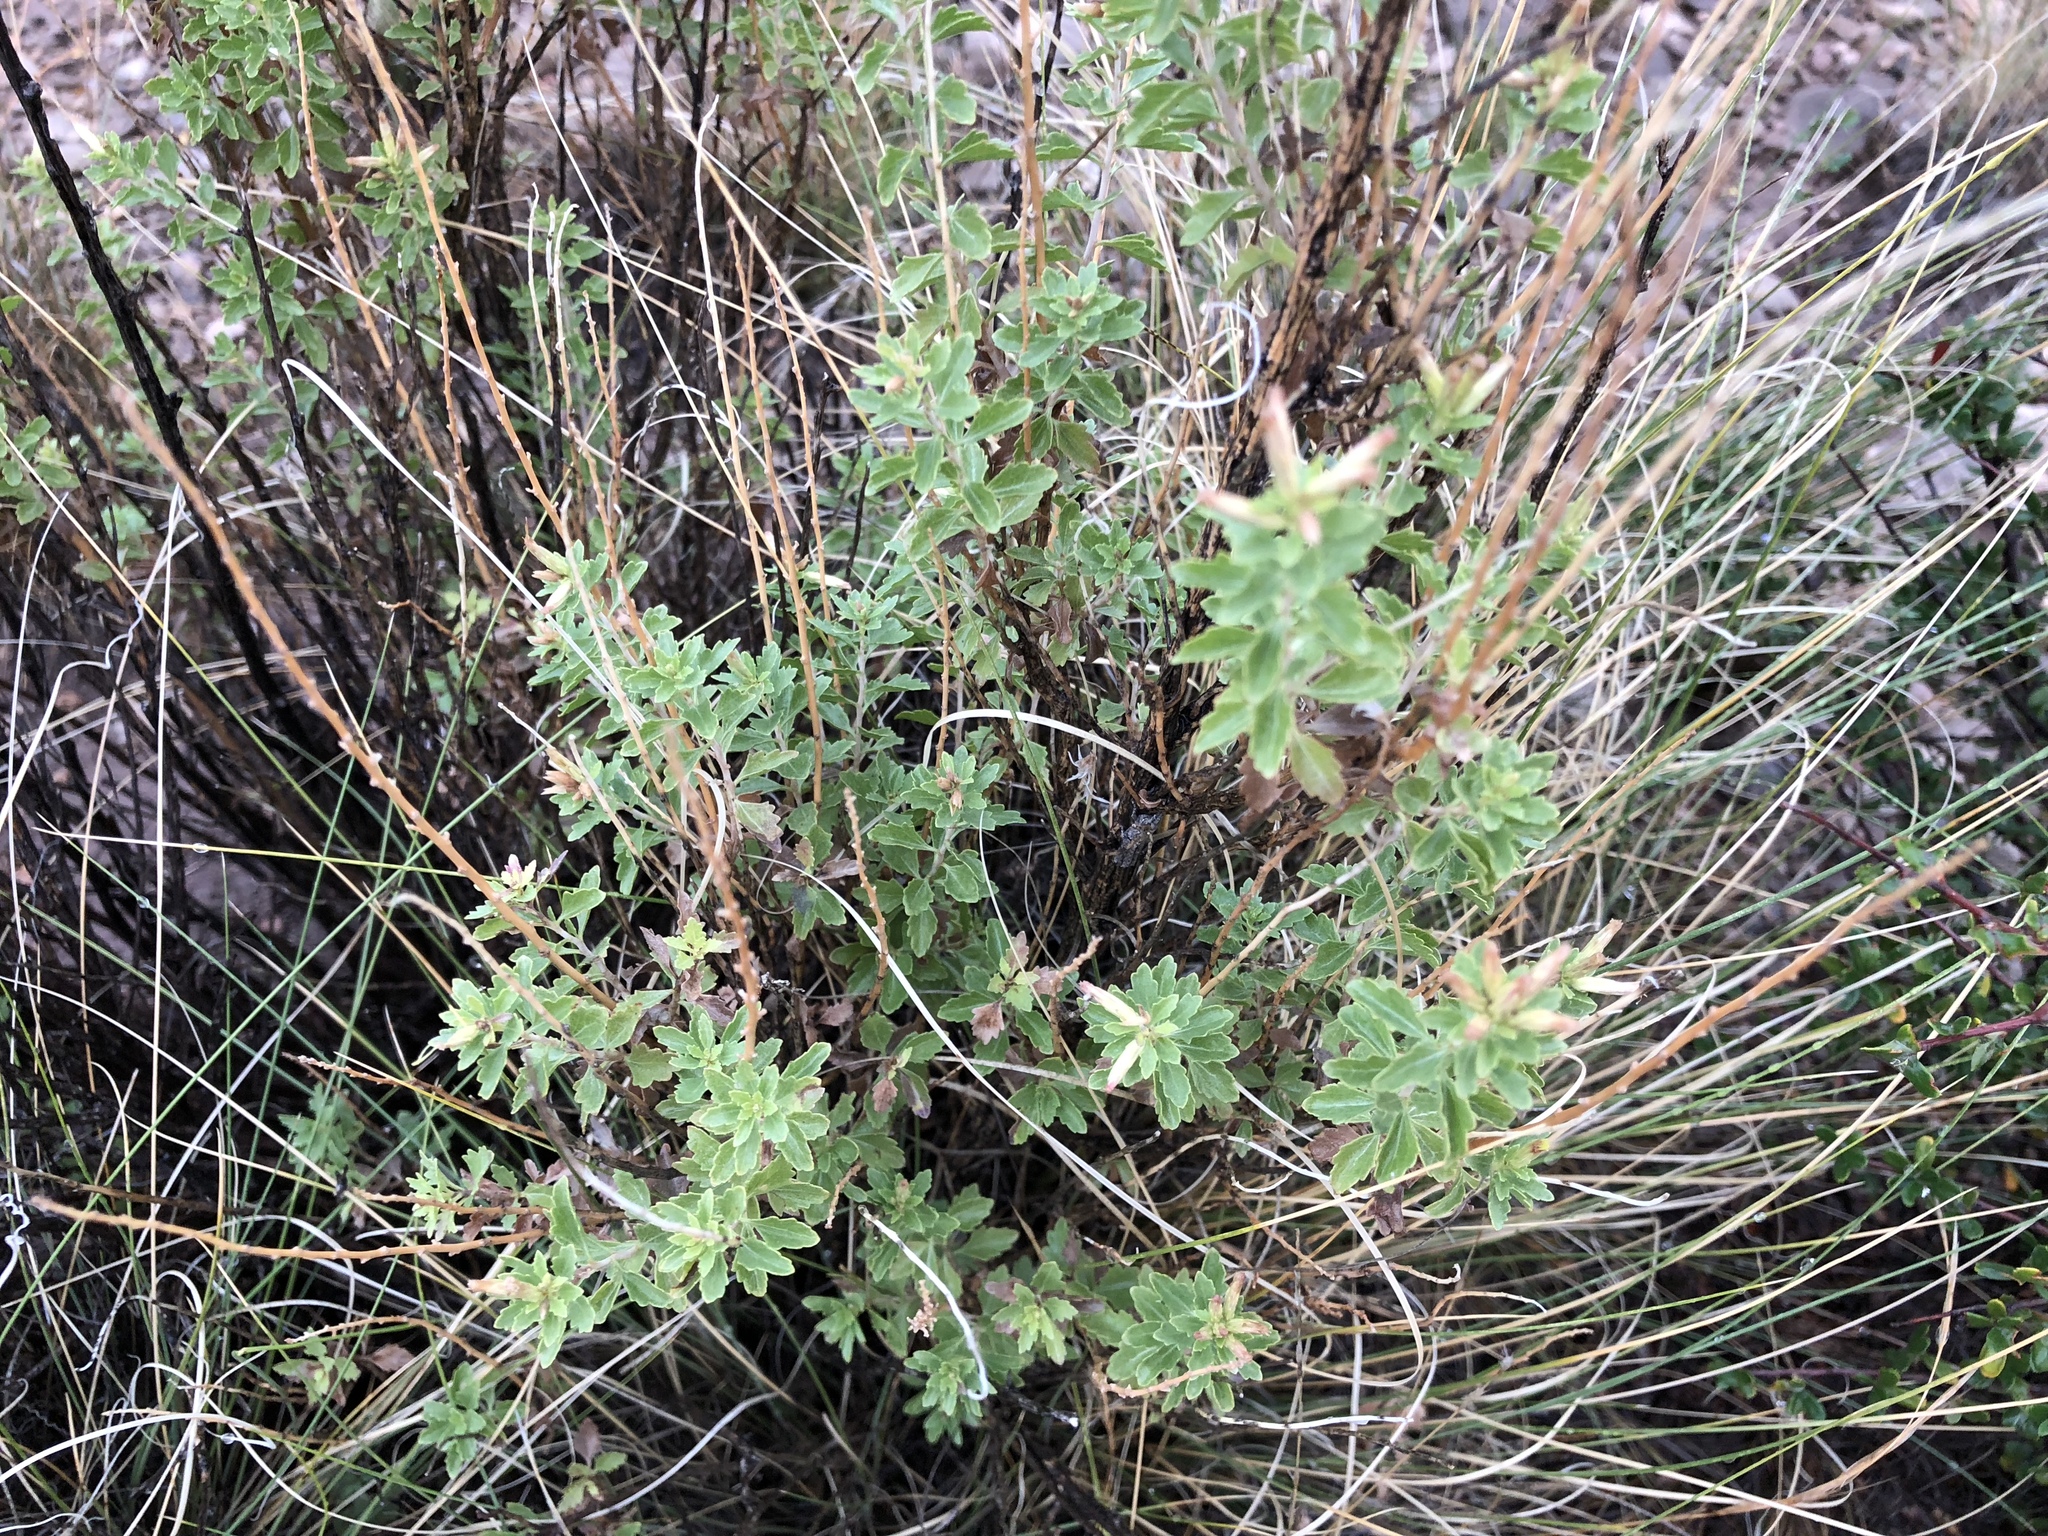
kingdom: Plantae
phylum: Tracheophyta
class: Magnoliopsida
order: Rosales
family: Rosaceae
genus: Cercocarpus
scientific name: Cercocarpus breviflorus
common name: Wright's mountain-mahogany
